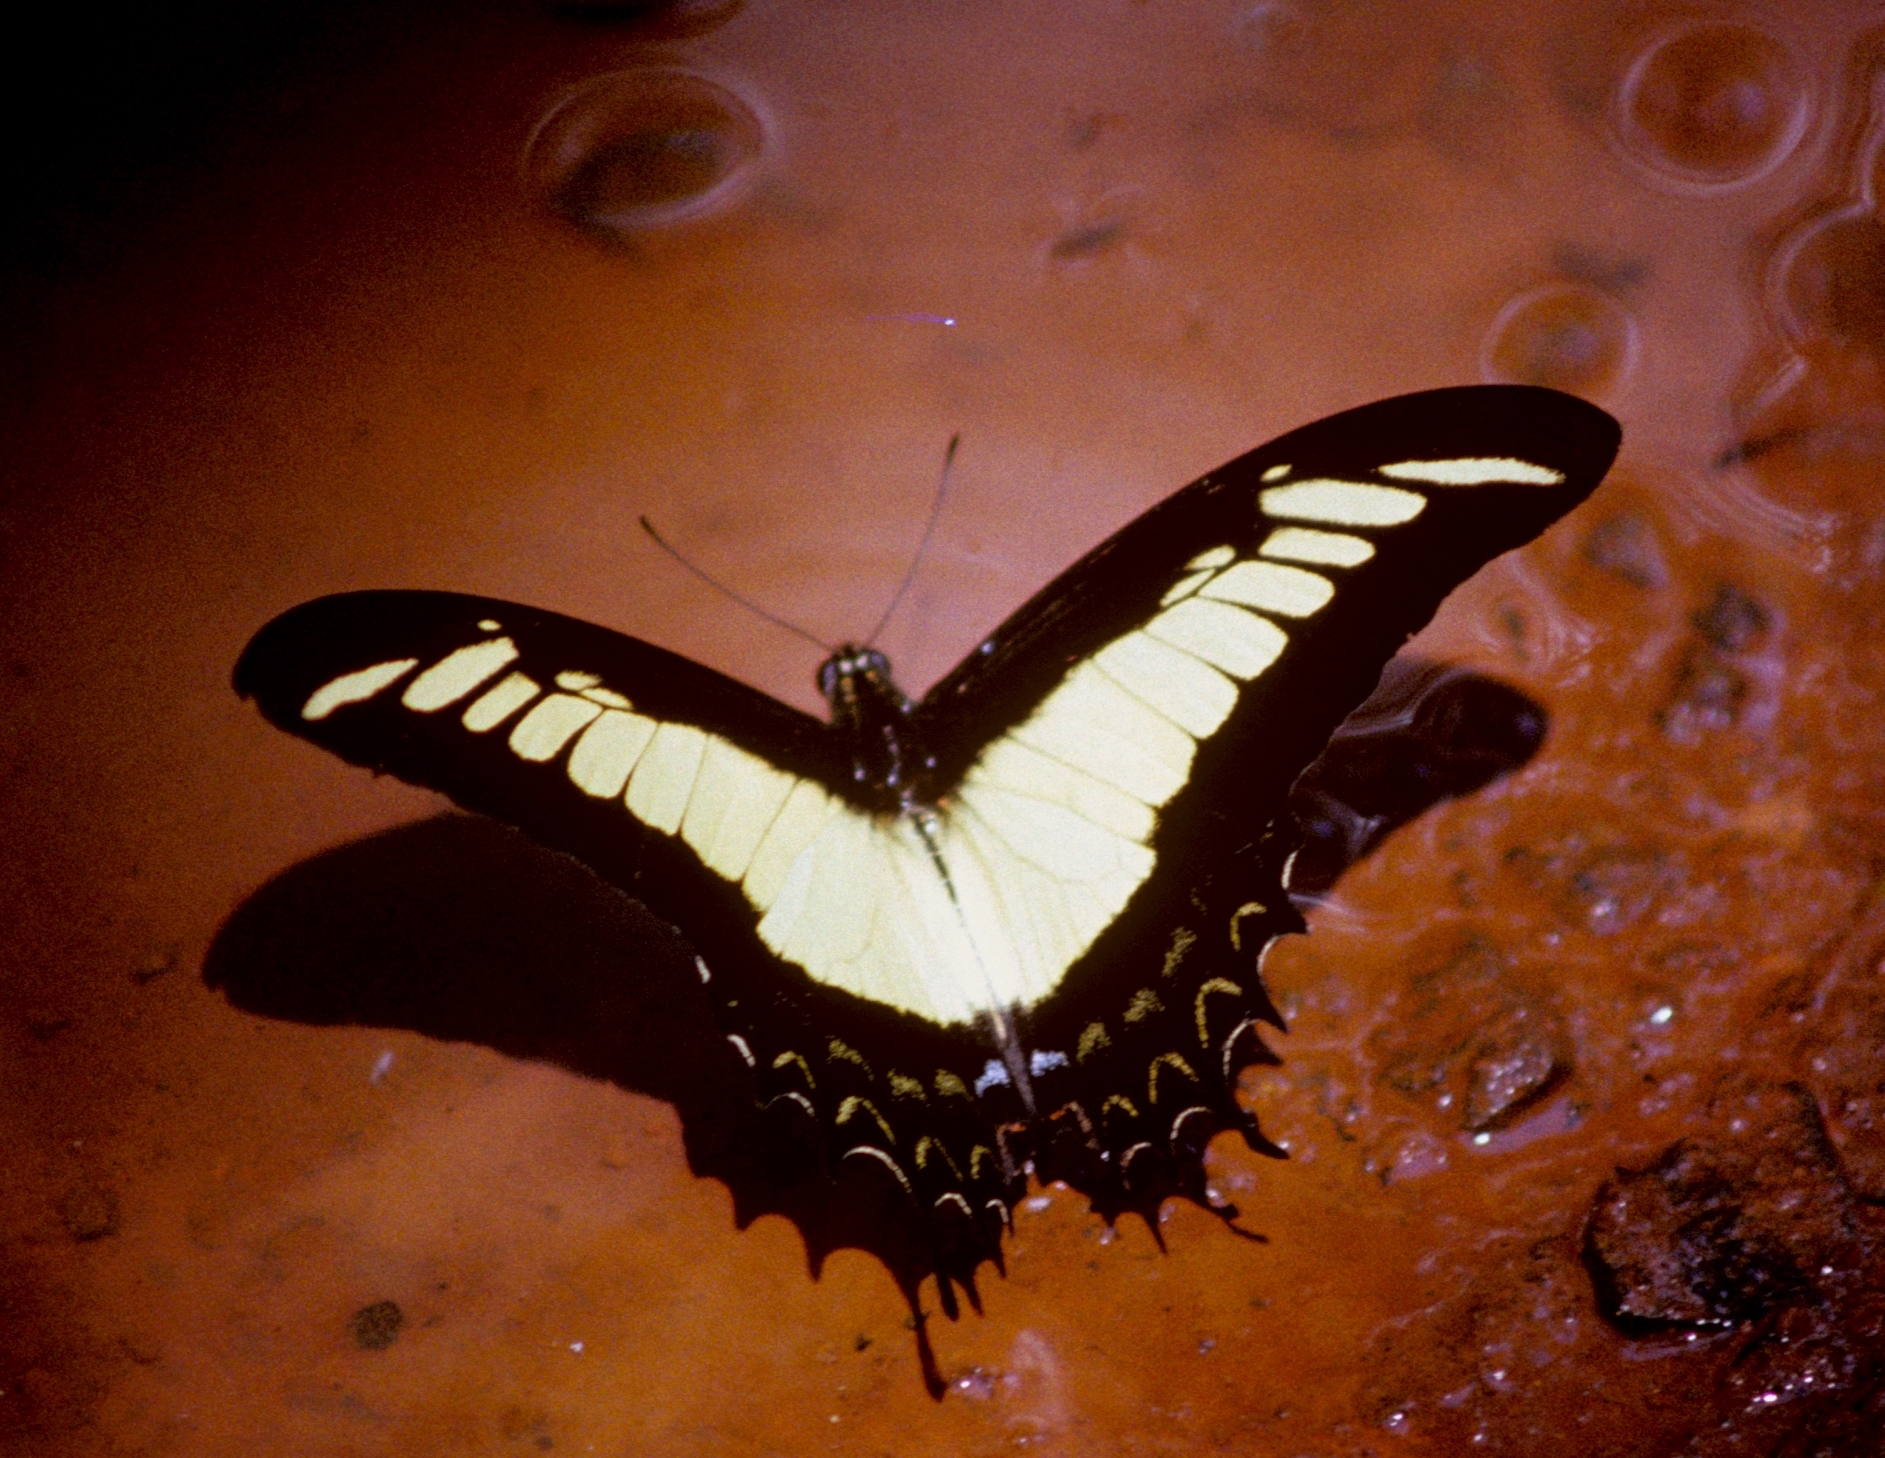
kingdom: Animalia
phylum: Arthropoda
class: Insecta
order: Lepidoptera
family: Papilionidae
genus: Papilio
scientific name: Papilio androgeus
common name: Androgeus swallowtail
